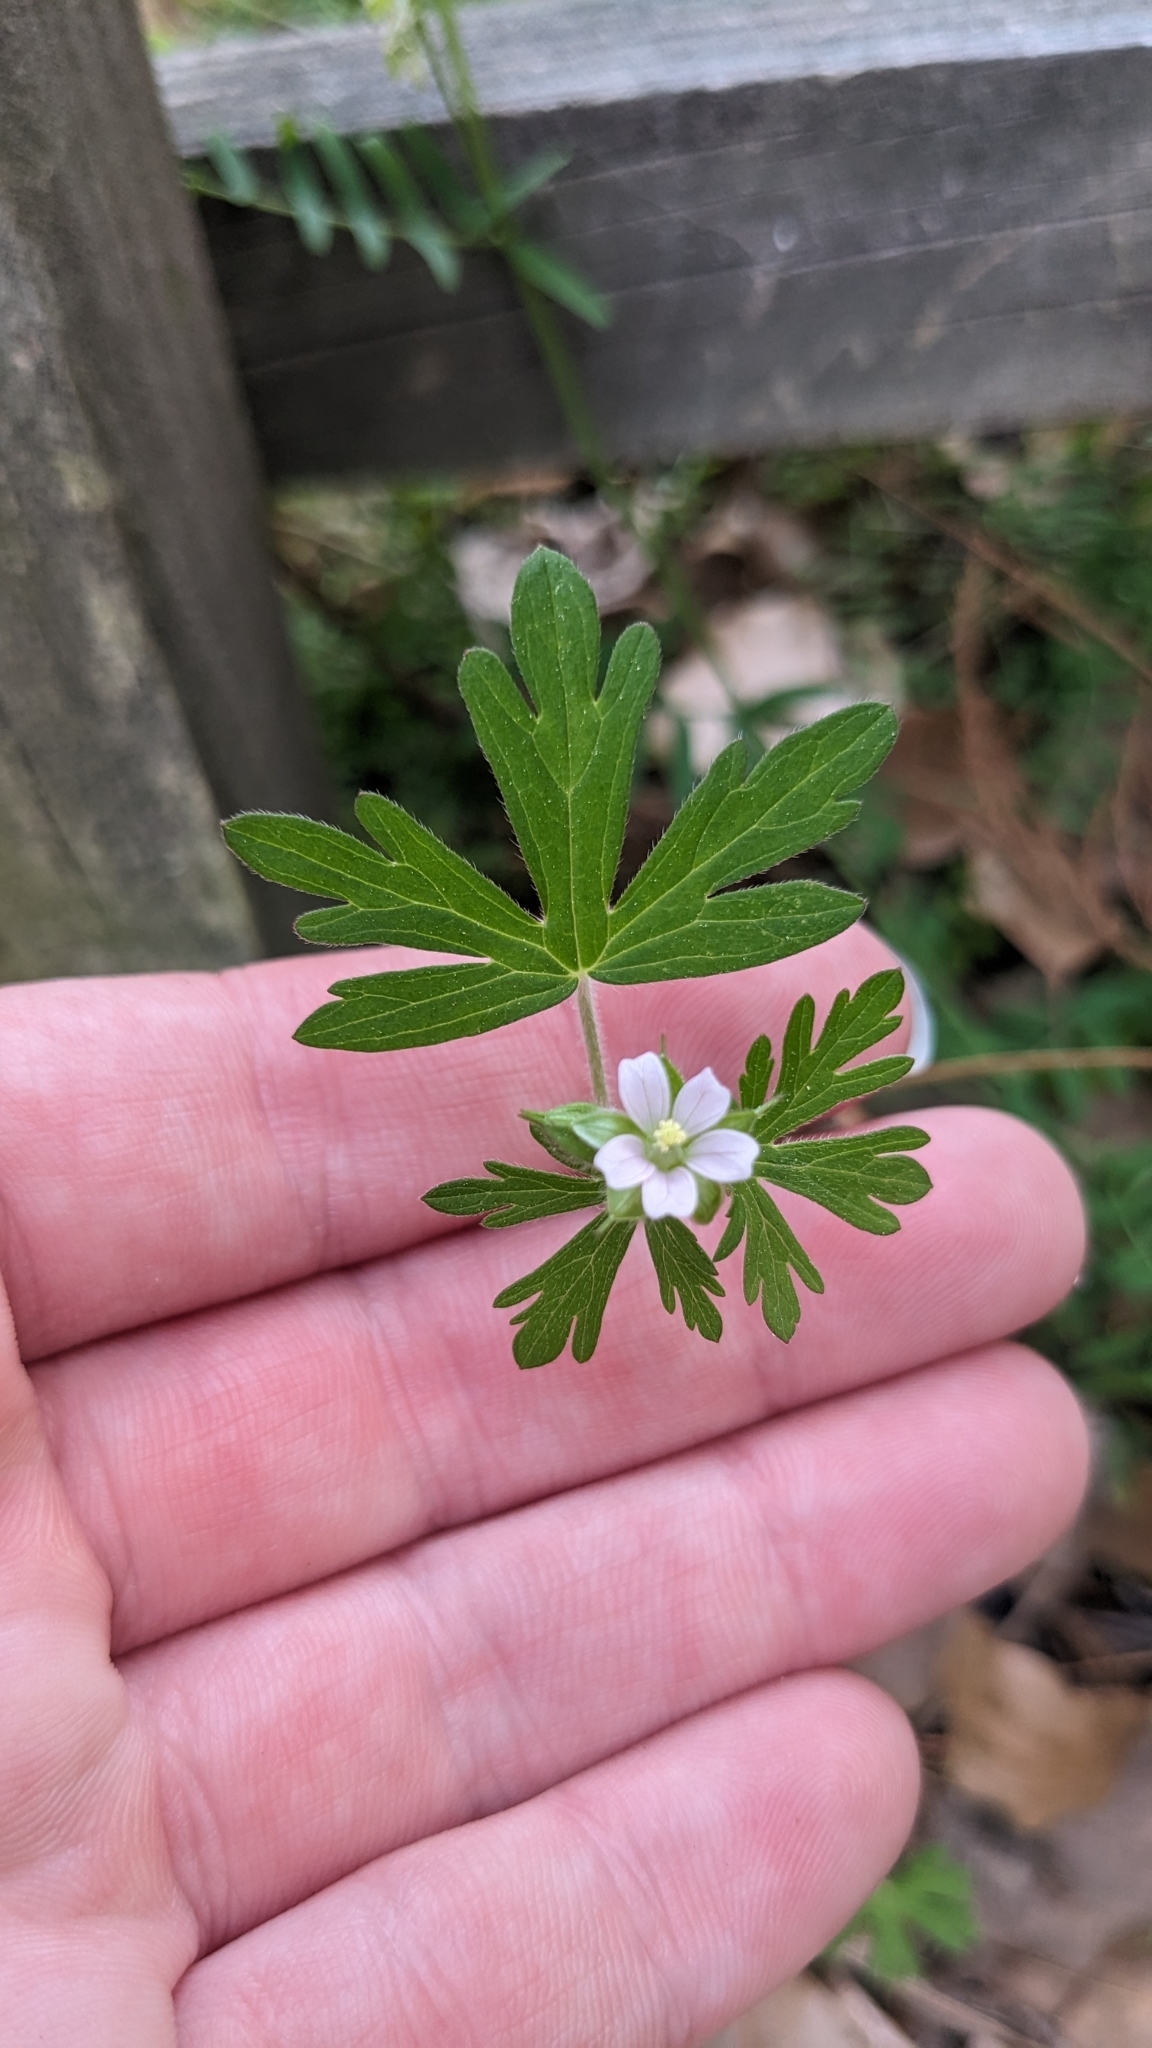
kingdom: Plantae
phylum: Tracheophyta
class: Magnoliopsida
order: Geraniales
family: Geraniaceae
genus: Geranium
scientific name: Geranium carolinianum
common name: Carolina crane's-bill
